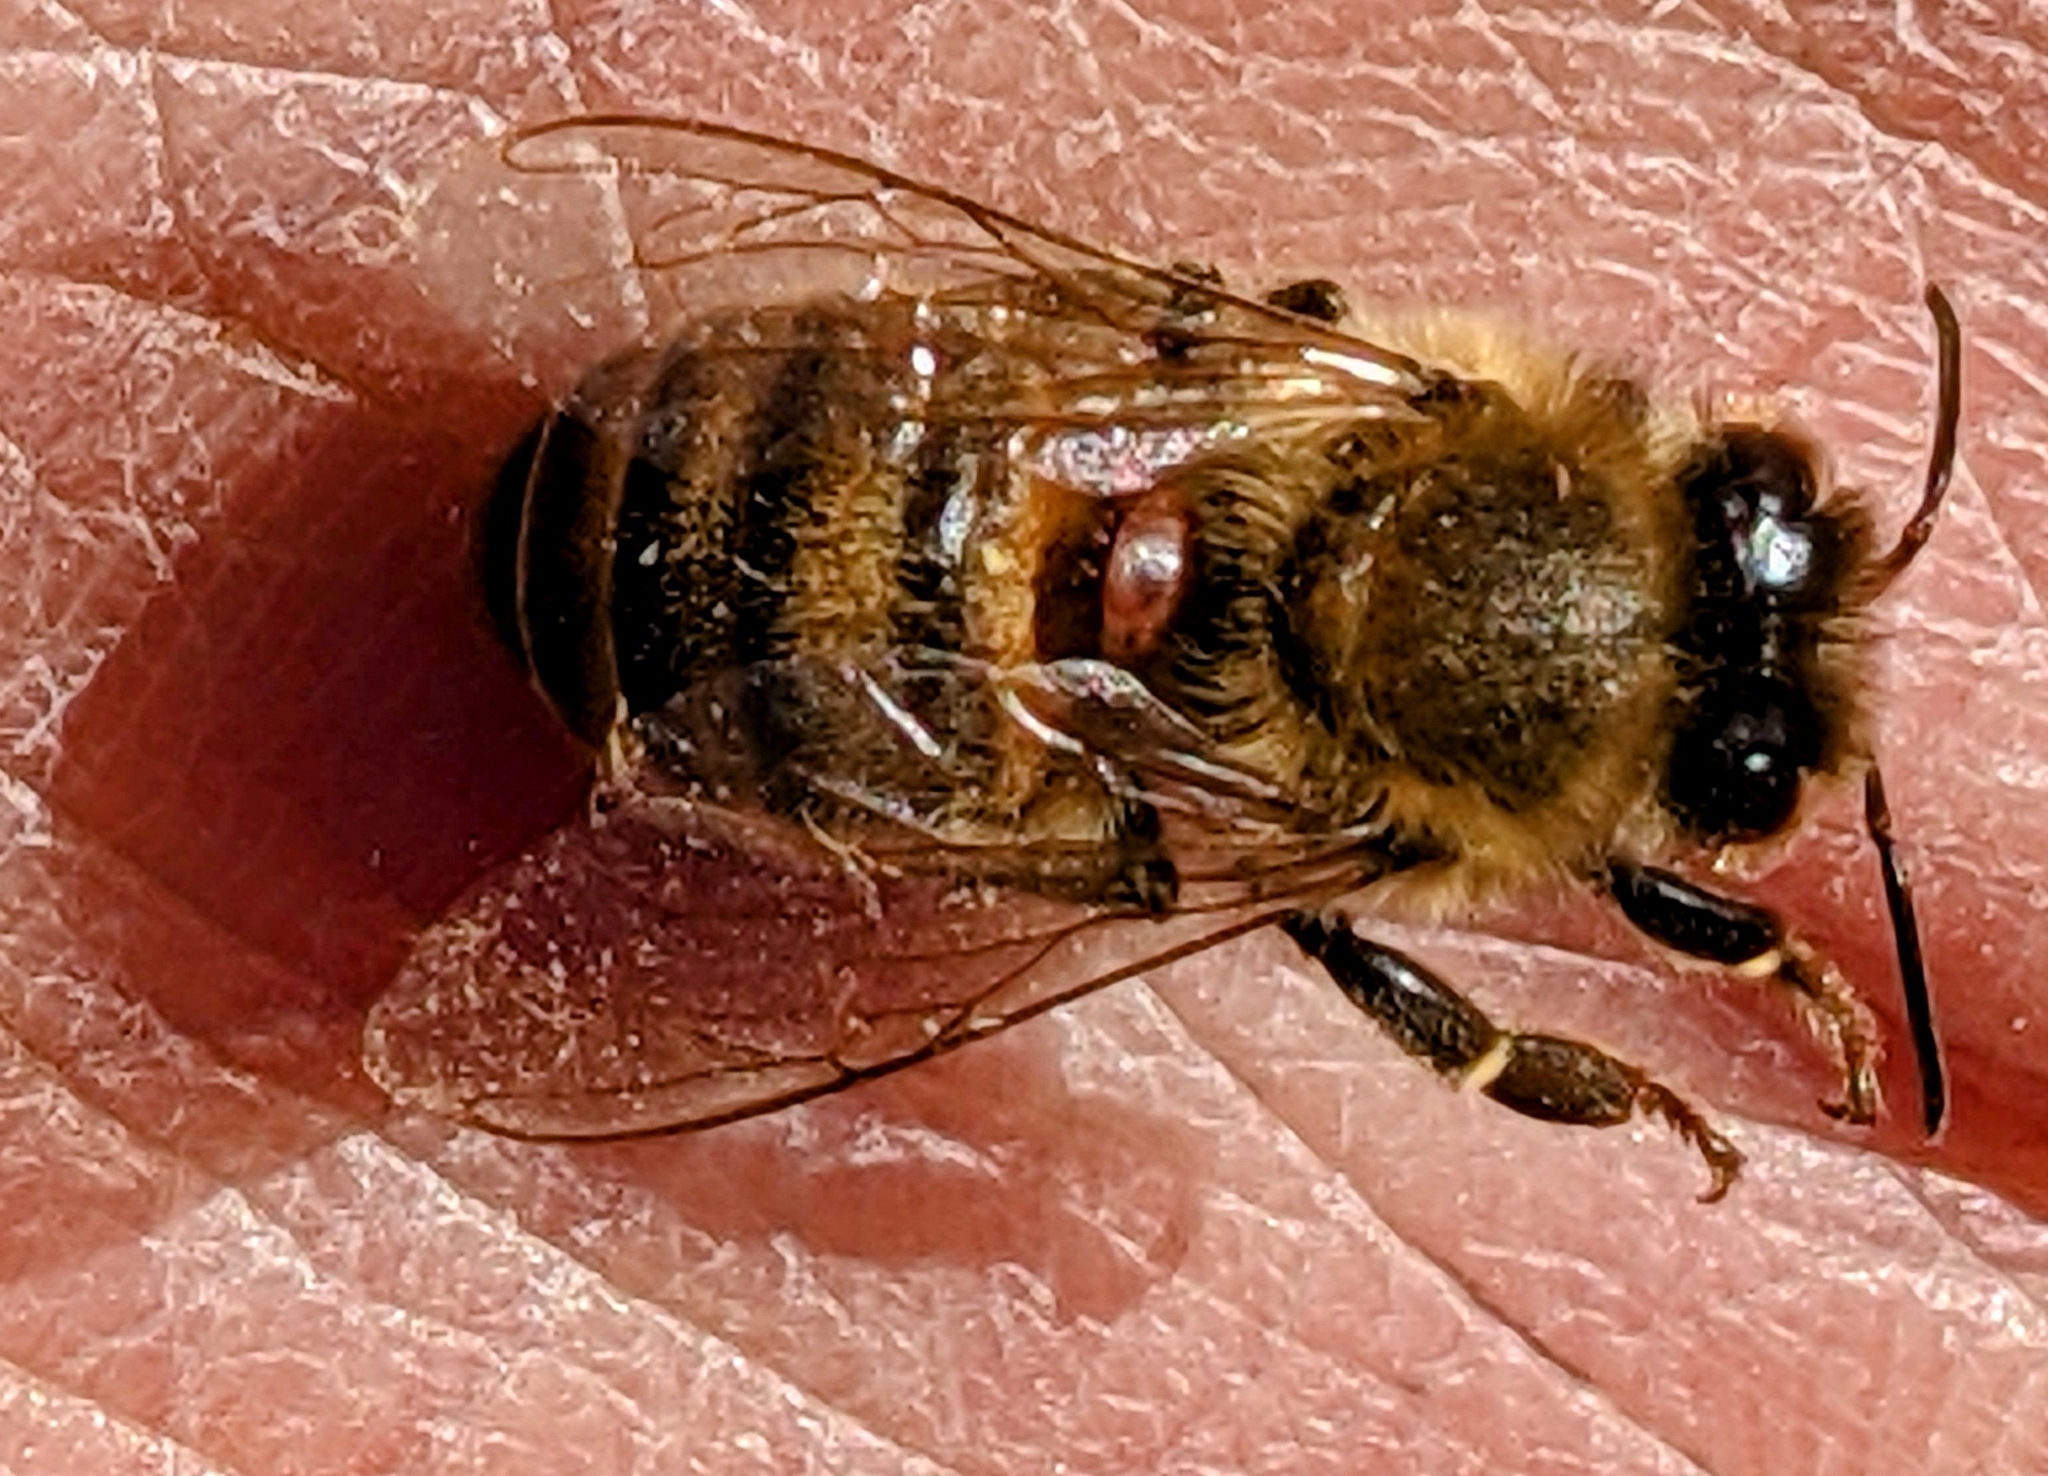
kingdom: Animalia
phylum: Arthropoda
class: Arachnida
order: Mesostigmata
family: Varroidae
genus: Varroa
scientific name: Varroa destructor
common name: Honey bee mite
